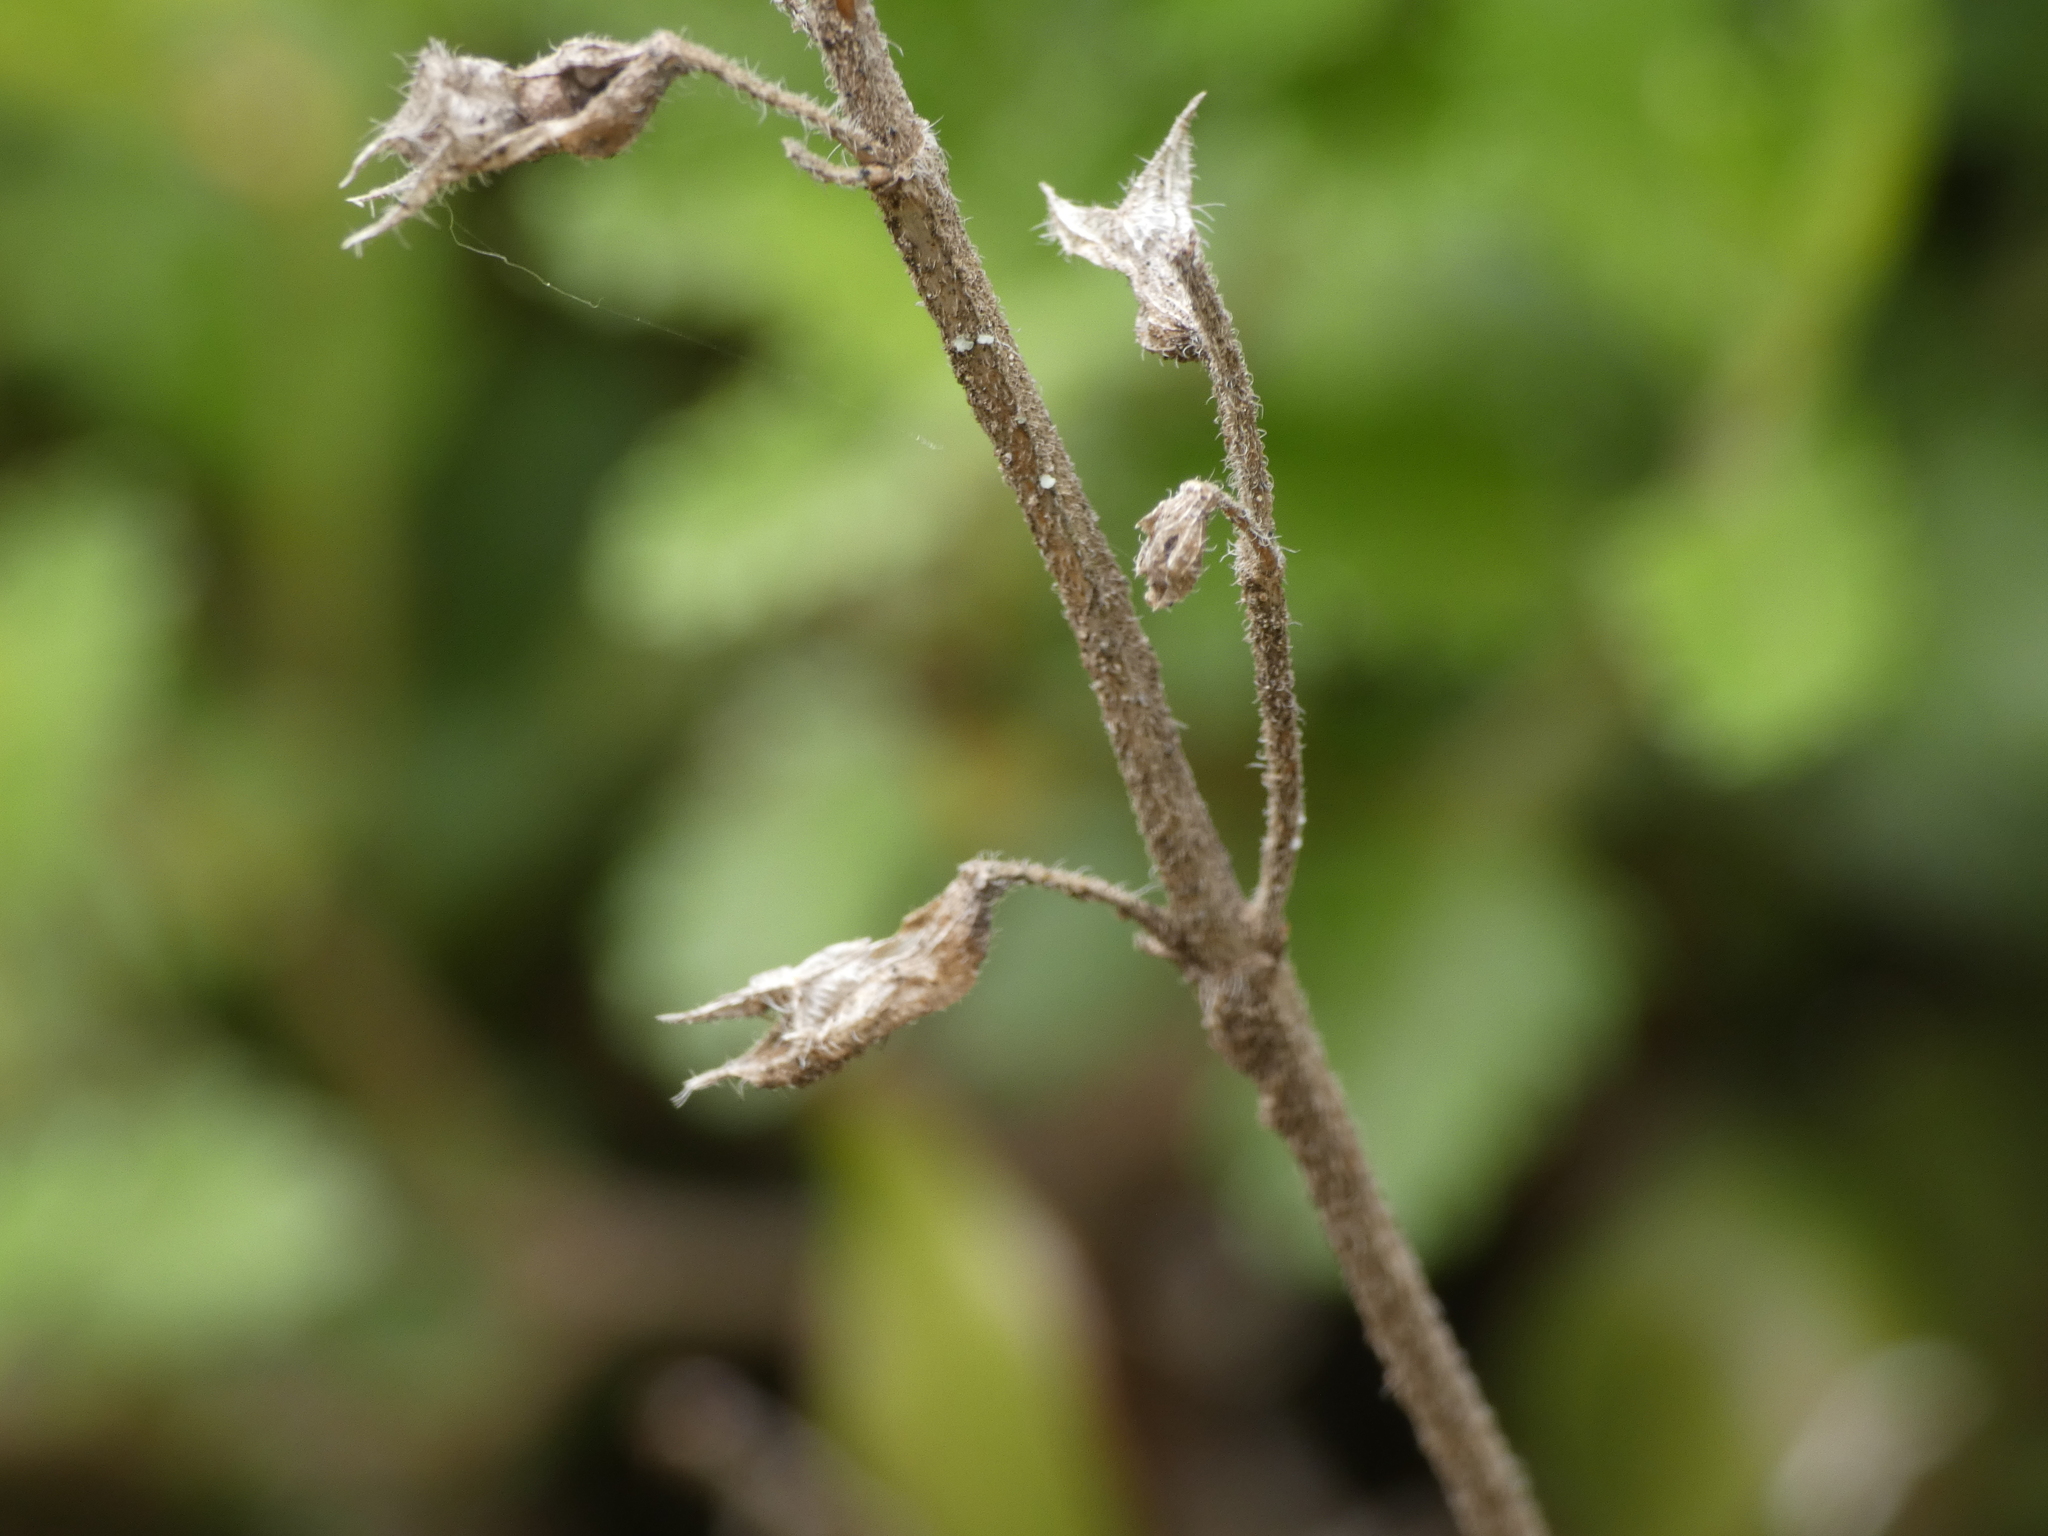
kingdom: Plantae
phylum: Tracheophyta
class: Magnoliopsida
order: Lamiales
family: Lamiaceae
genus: Teucrium
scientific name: Teucrium chamaedrys
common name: Wall germander
